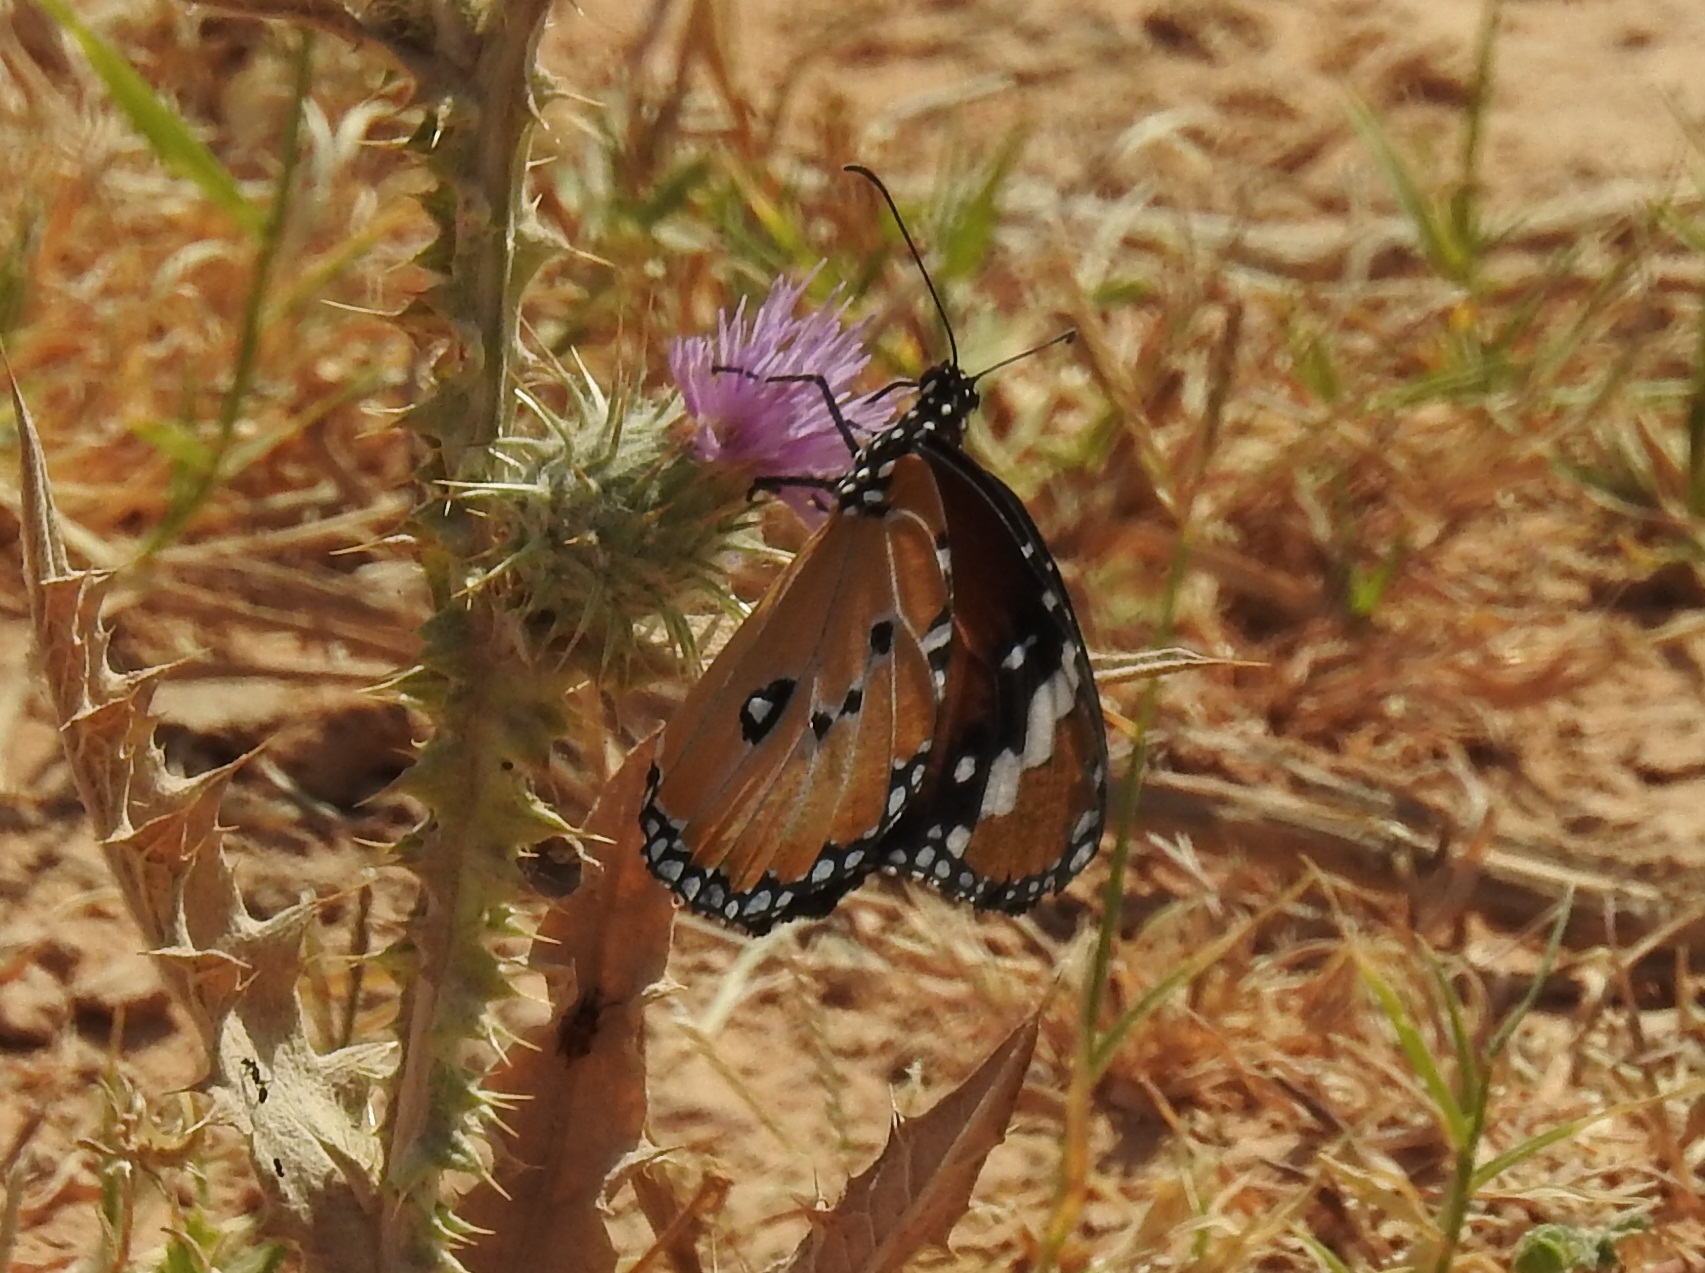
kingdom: Animalia
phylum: Arthropoda
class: Insecta
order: Lepidoptera
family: Nymphalidae
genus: Danaus
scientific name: Danaus chrysippus
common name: Plain tiger
